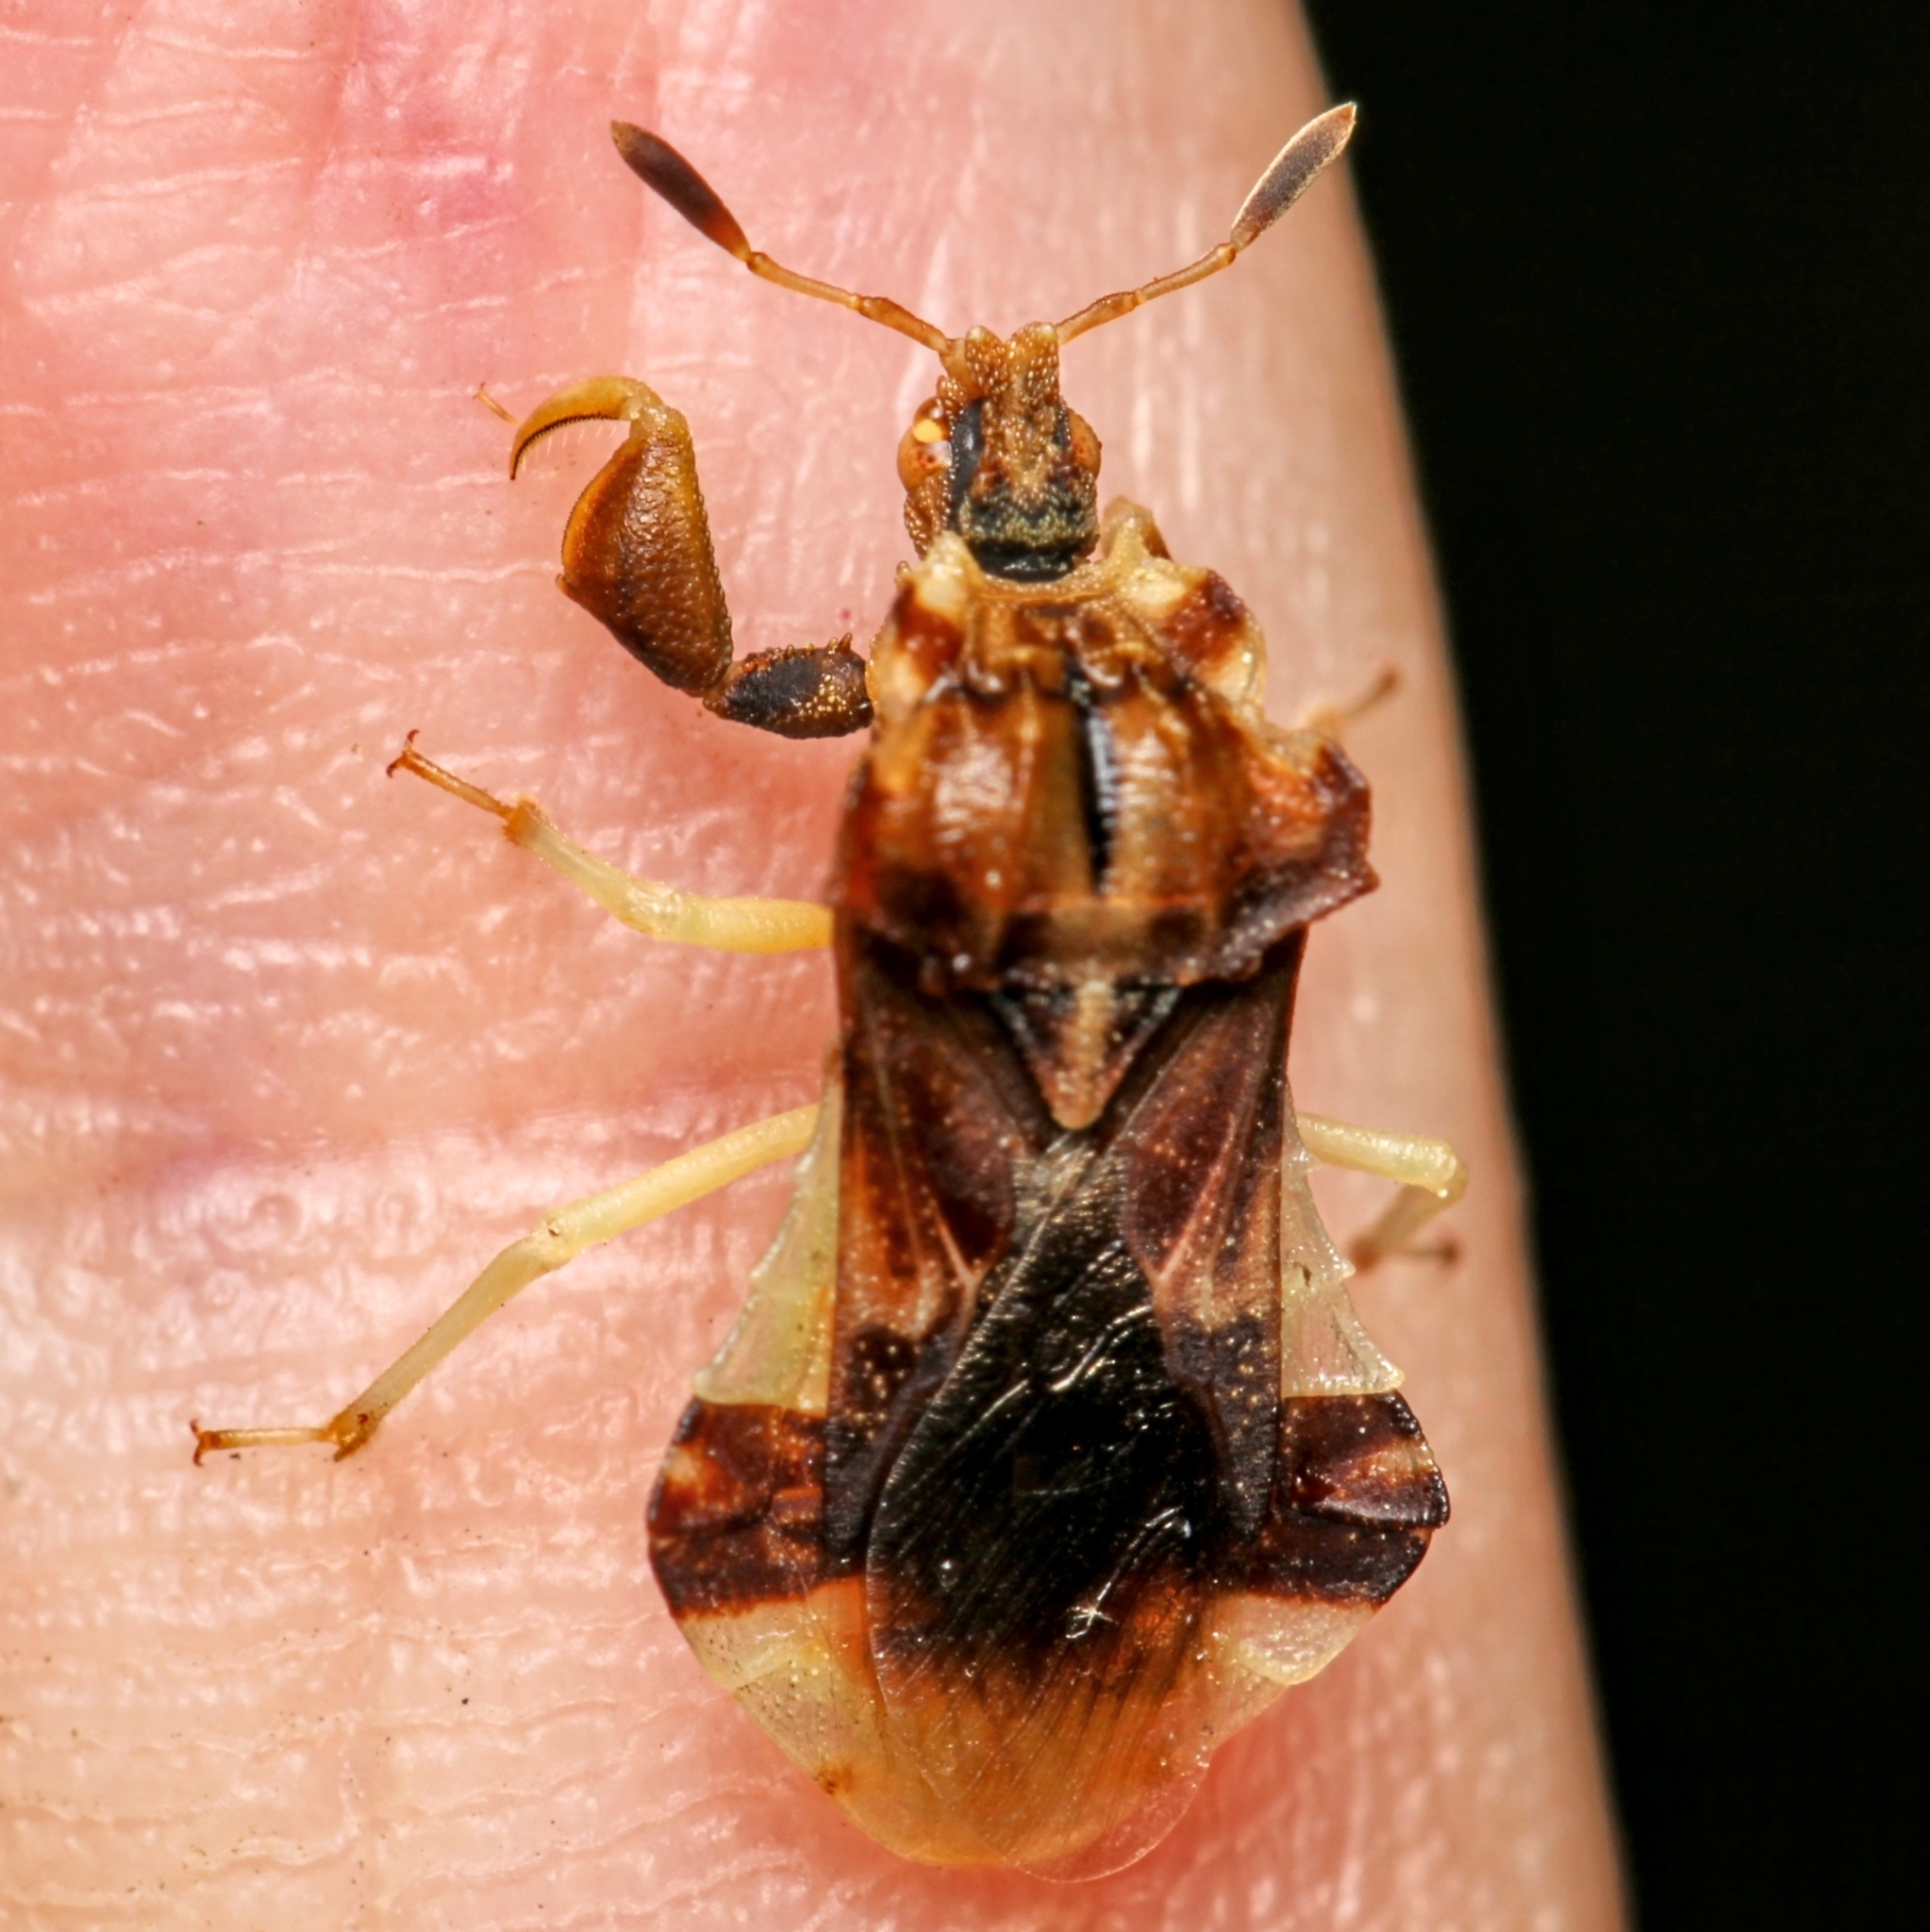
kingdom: Animalia
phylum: Arthropoda
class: Insecta
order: Hemiptera
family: Reduviidae
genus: Phymata
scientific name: Phymata fasciata
